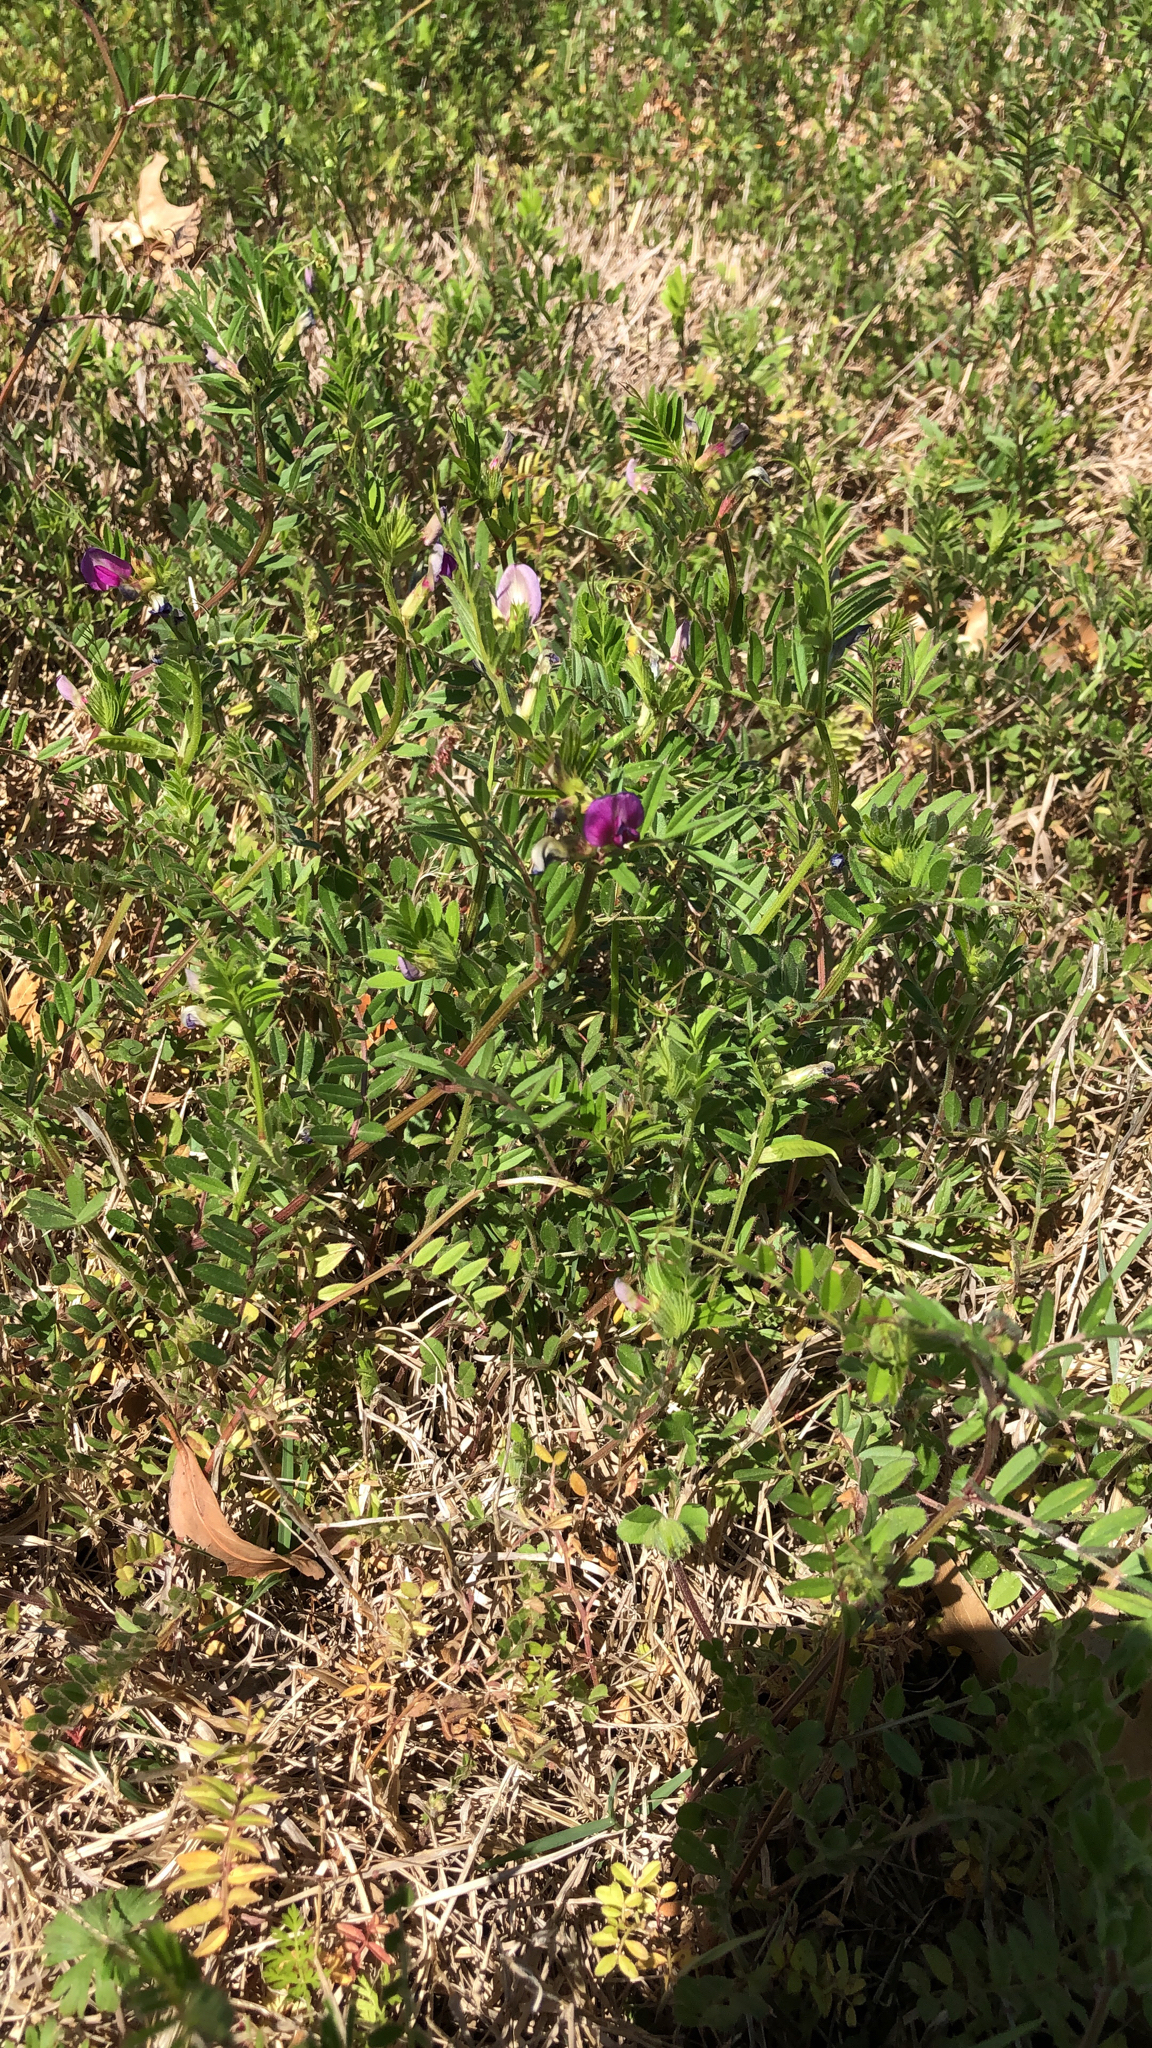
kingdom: Plantae
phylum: Tracheophyta
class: Magnoliopsida
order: Fabales
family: Fabaceae
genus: Vicia
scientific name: Vicia sativa
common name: Garden vetch
